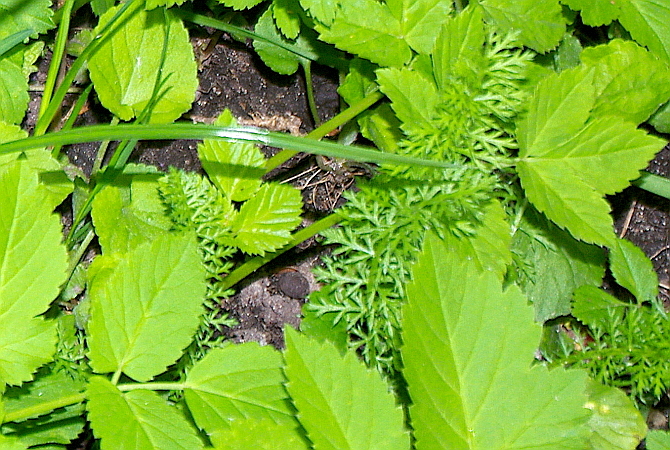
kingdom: Plantae
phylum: Tracheophyta
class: Magnoliopsida
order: Asterales
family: Asteraceae
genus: Achillea
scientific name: Achillea millefolium
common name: Yarrow
